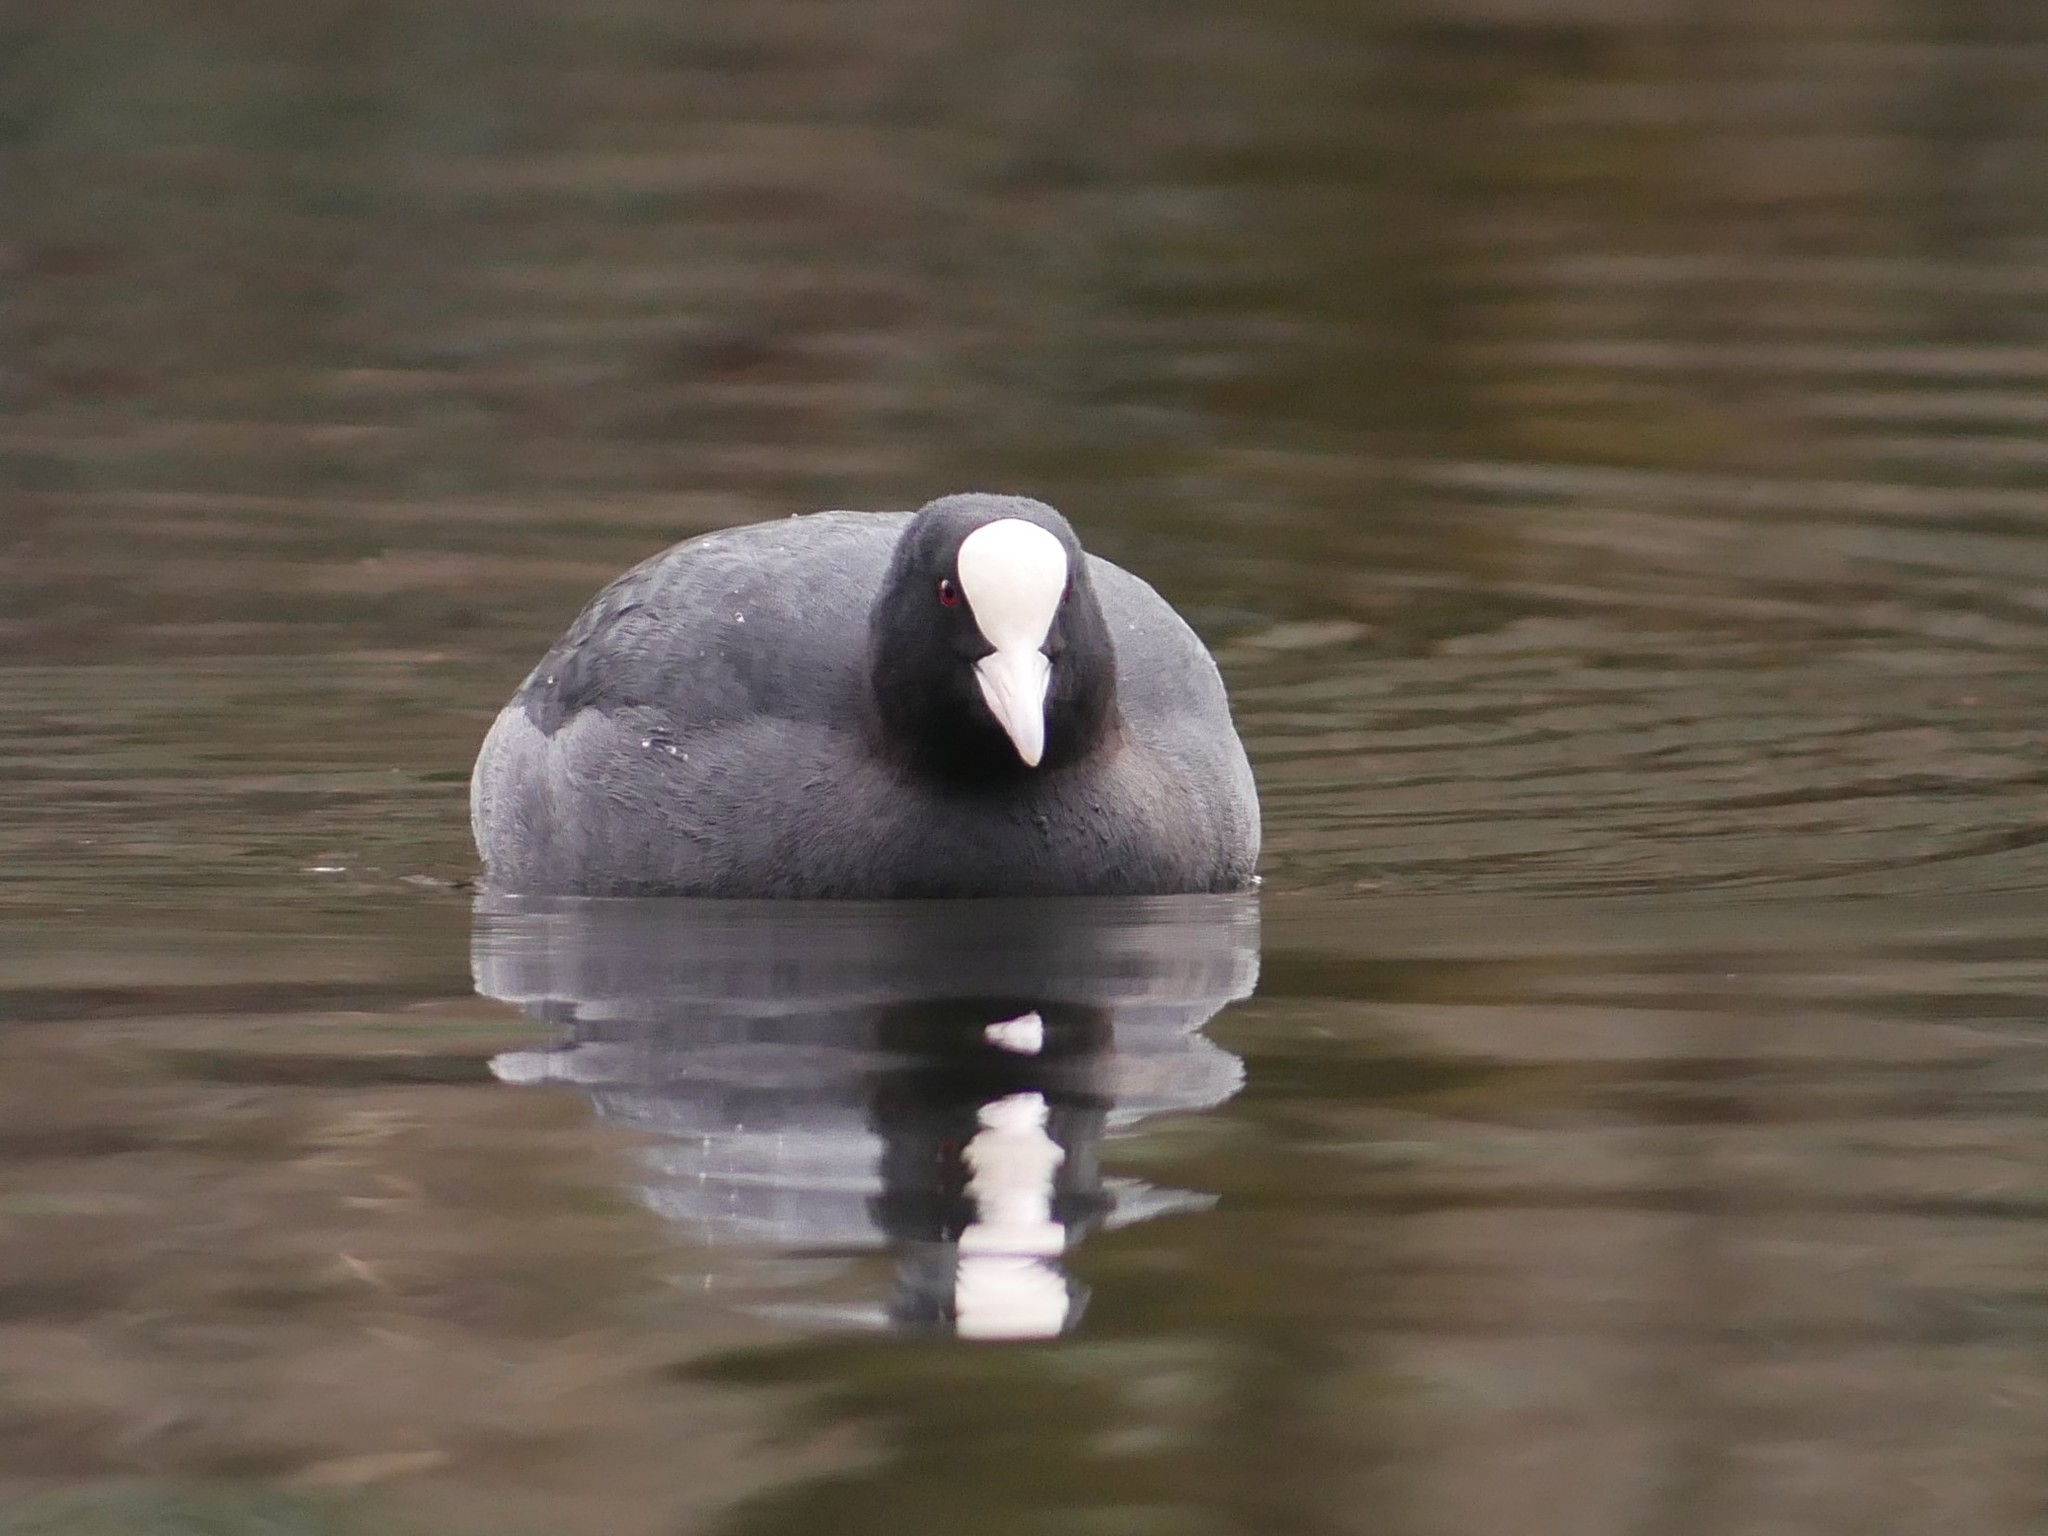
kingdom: Animalia
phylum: Chordata
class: Aves
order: Gruiformes
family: Rallidae
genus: Fulica
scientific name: Fulica atra
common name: Eurasian coot
